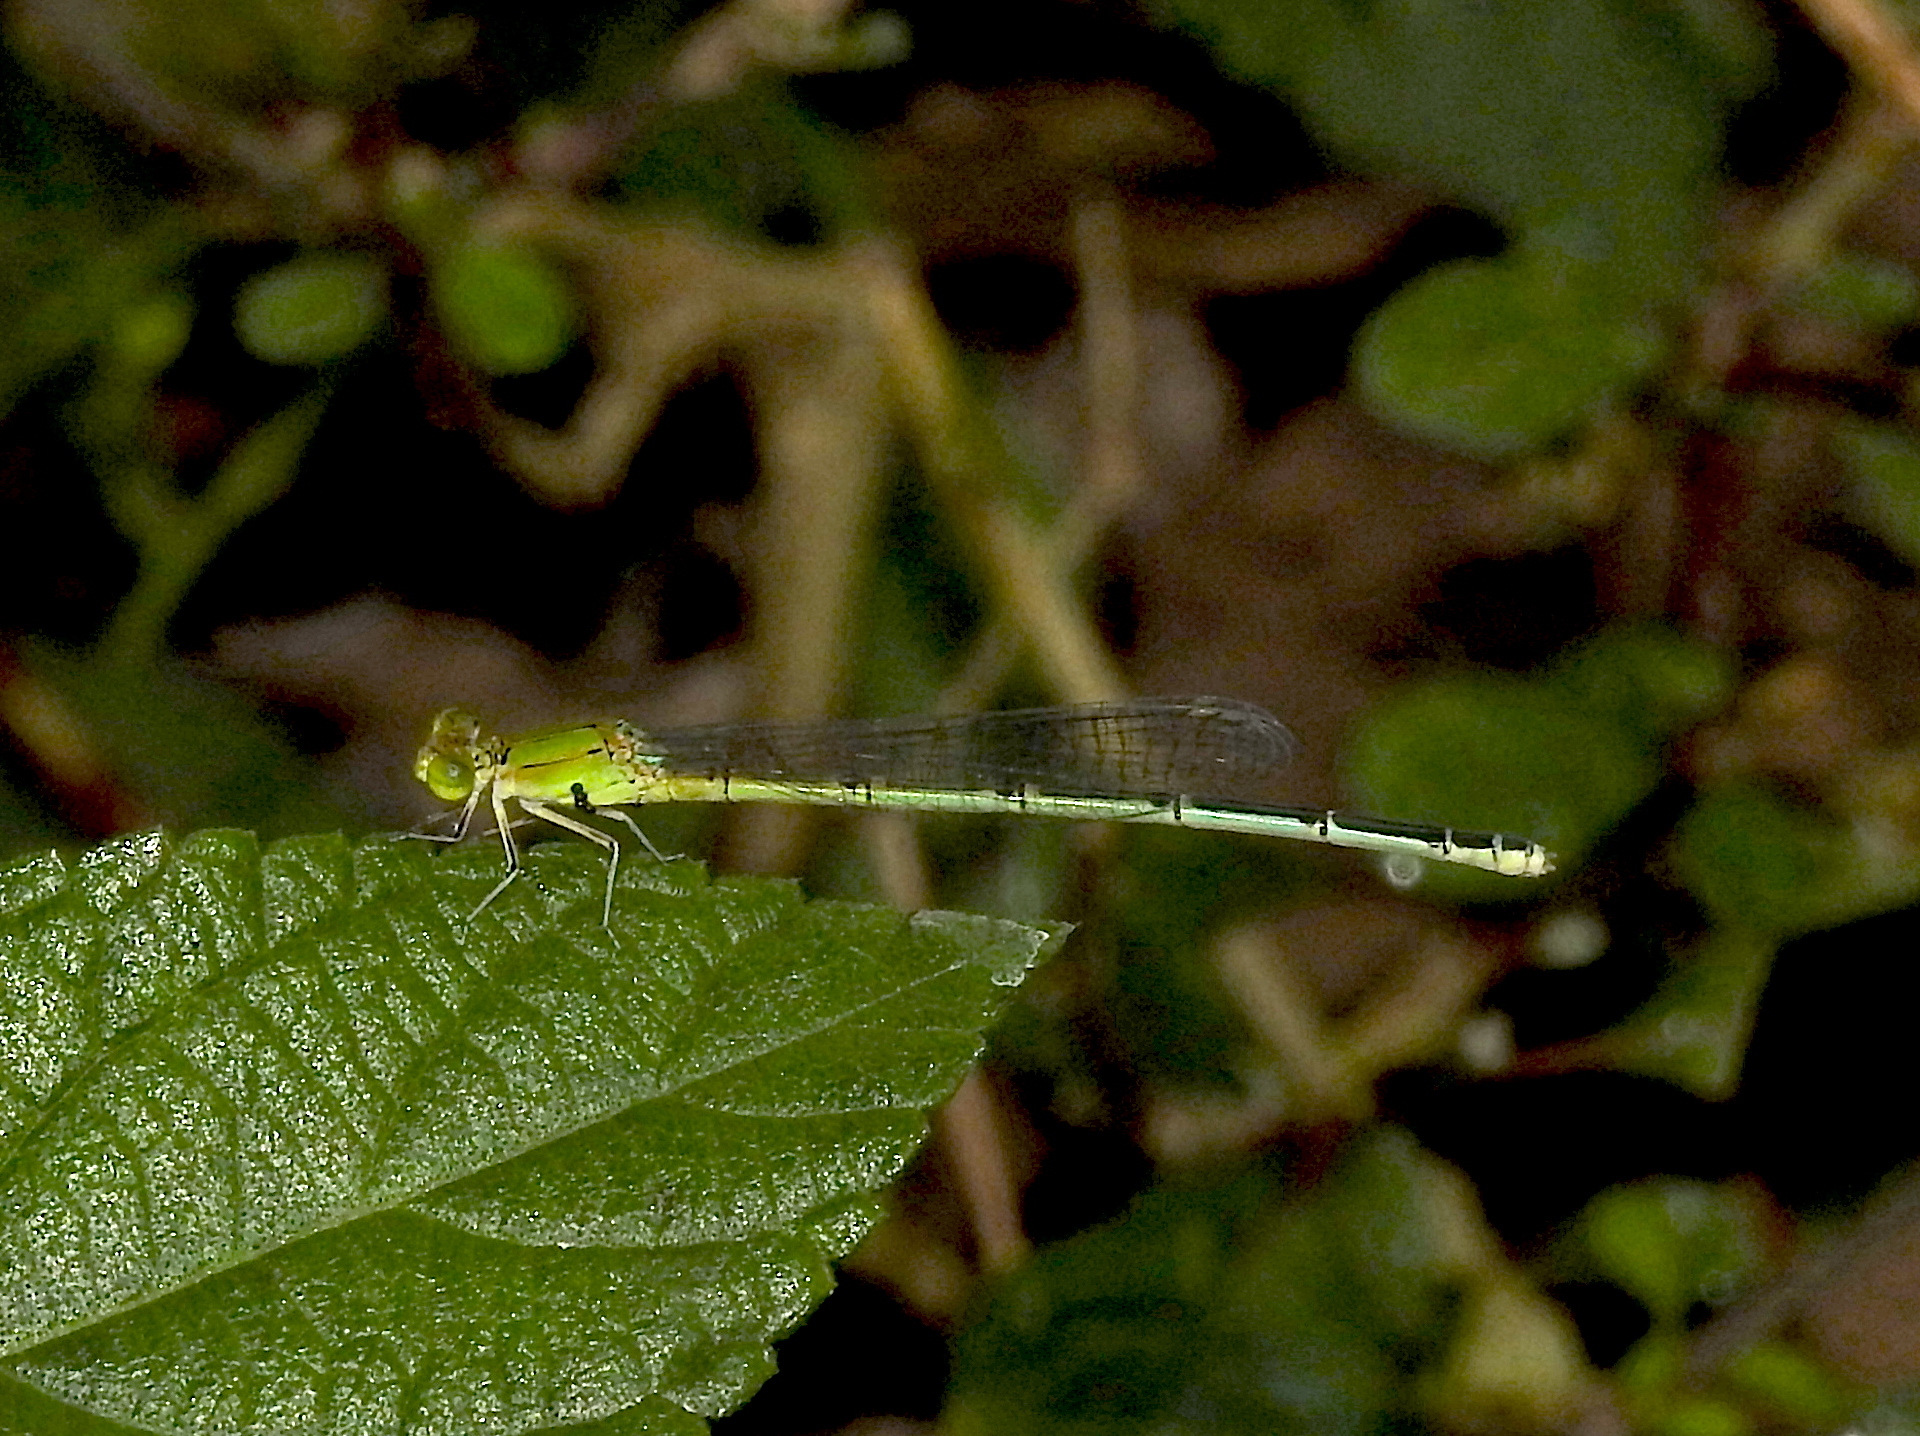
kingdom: Animalia
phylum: Arthropoda
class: Insecta
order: Odonata
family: Coenagrionidae
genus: Pseudagrion
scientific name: Pseudagrion decorum
